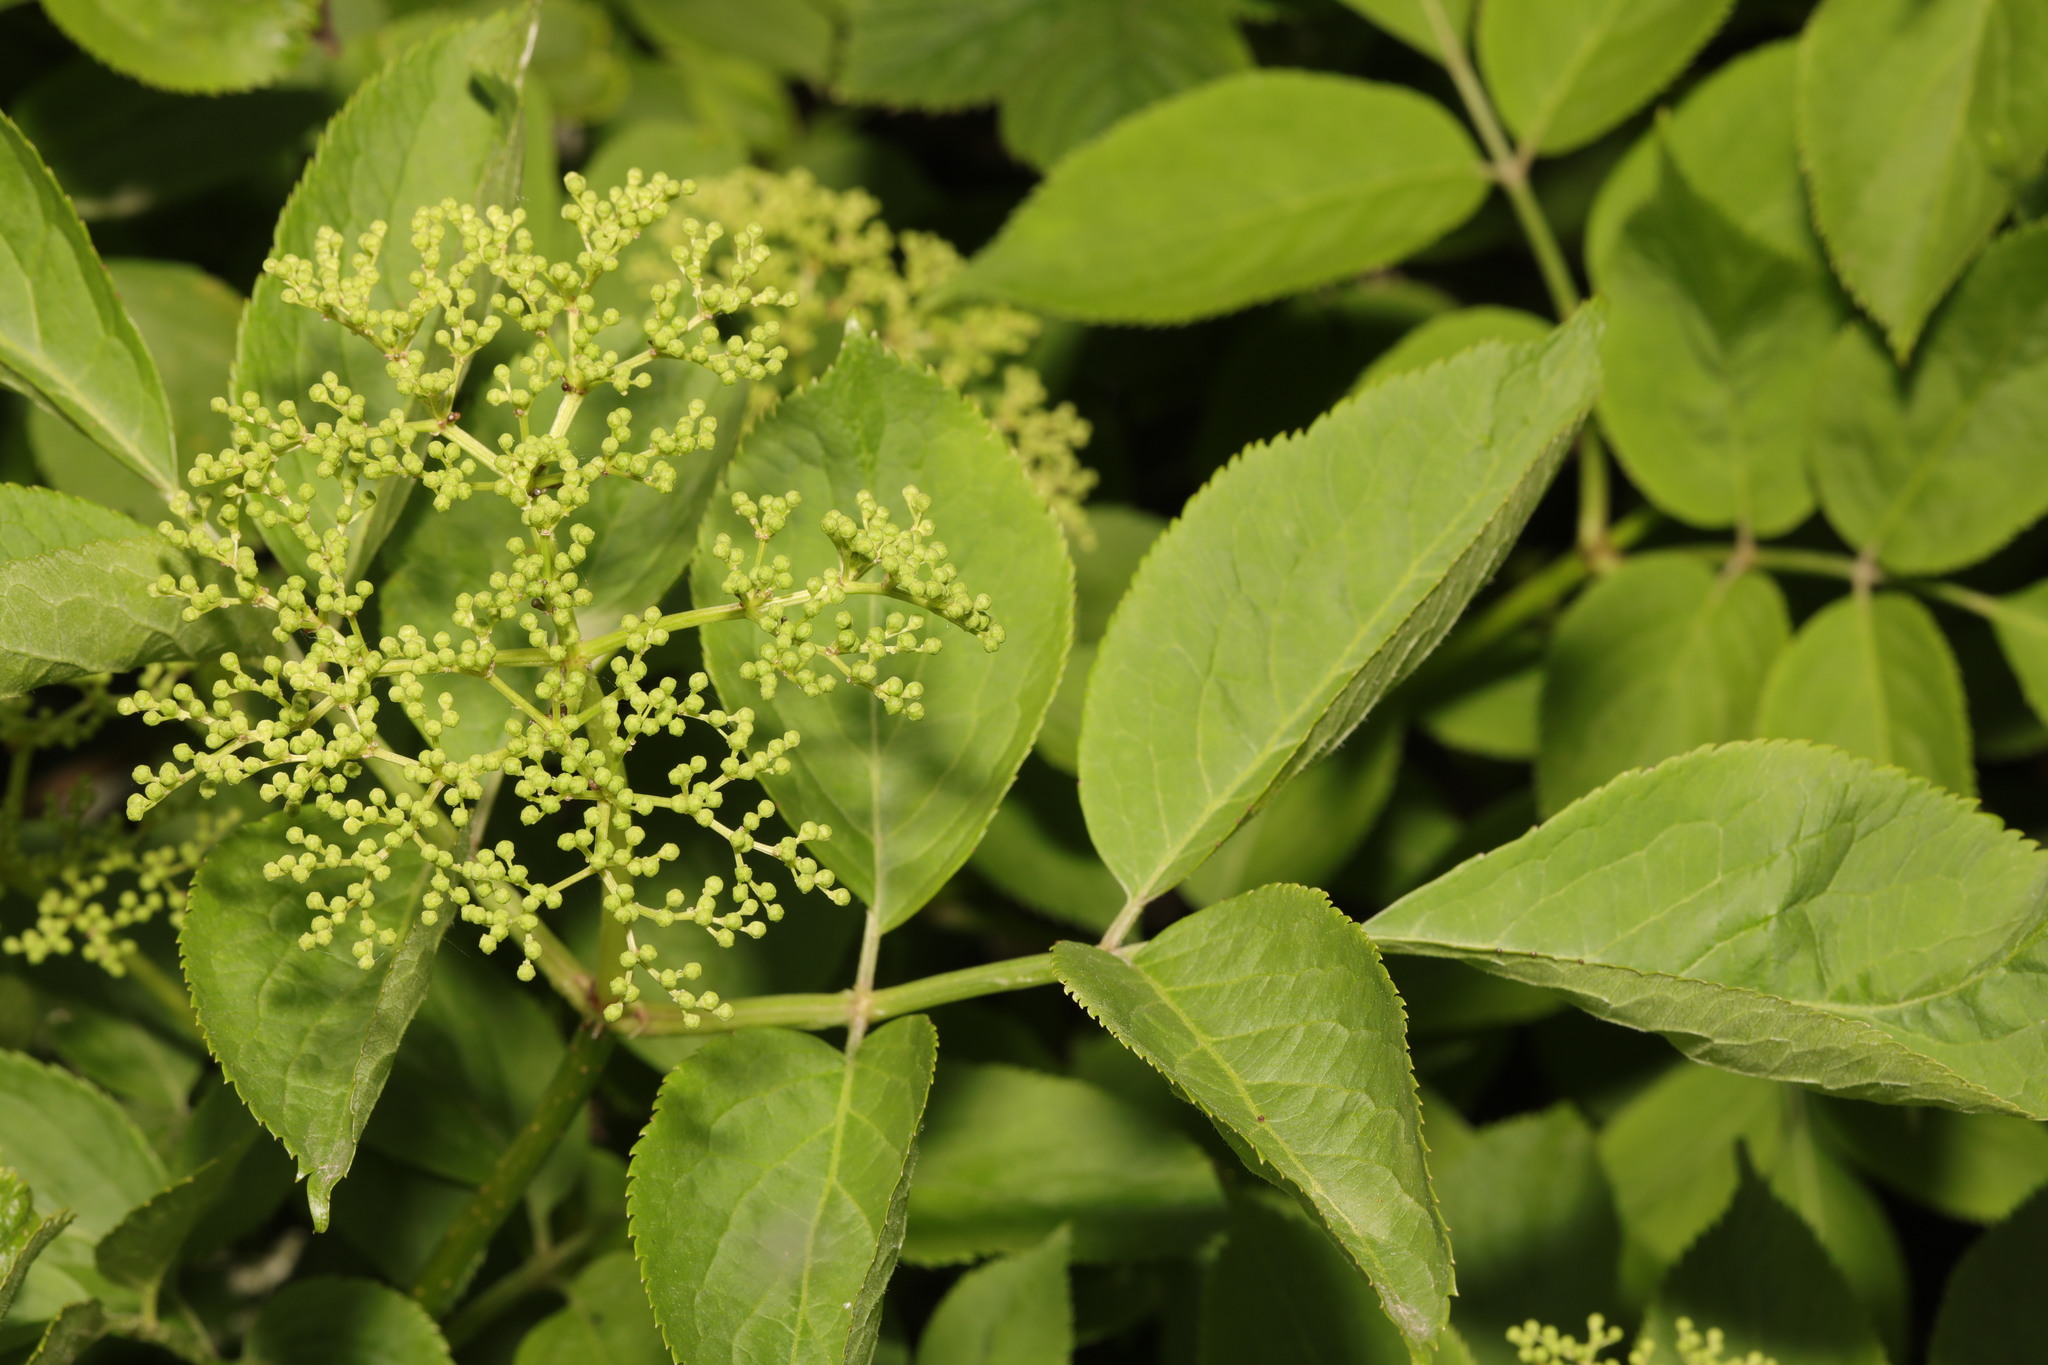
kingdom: Plantae
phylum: Tracheophyta
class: Magnoliopsida
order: Dipsacales
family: Viburnaceae
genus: Sambucus
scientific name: Sambucus nigra
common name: Elder
